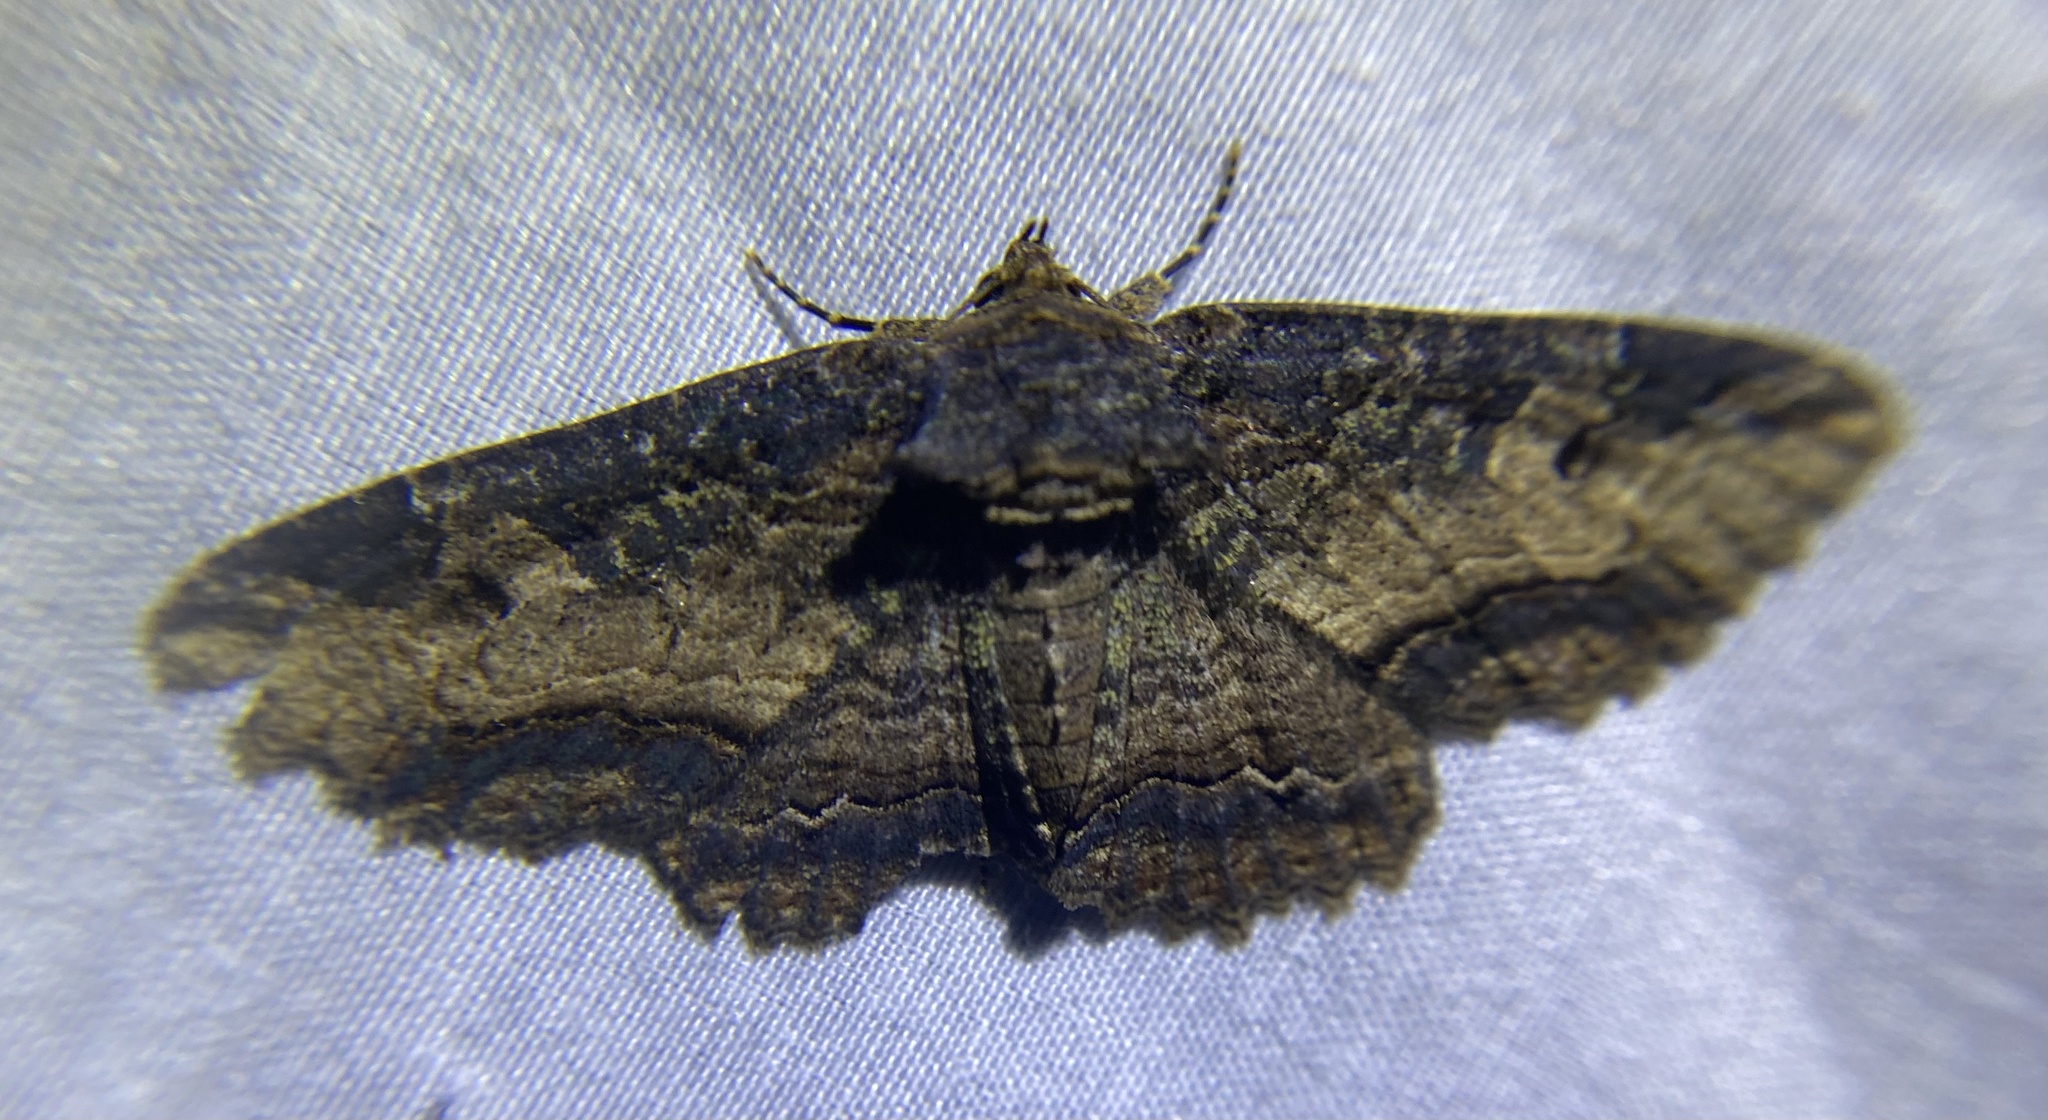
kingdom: Animalia
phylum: Arthropoda
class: Insecta
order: Lepidoptera
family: Erebidae
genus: Zale
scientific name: Zale minerea
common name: Colorful zale moth
